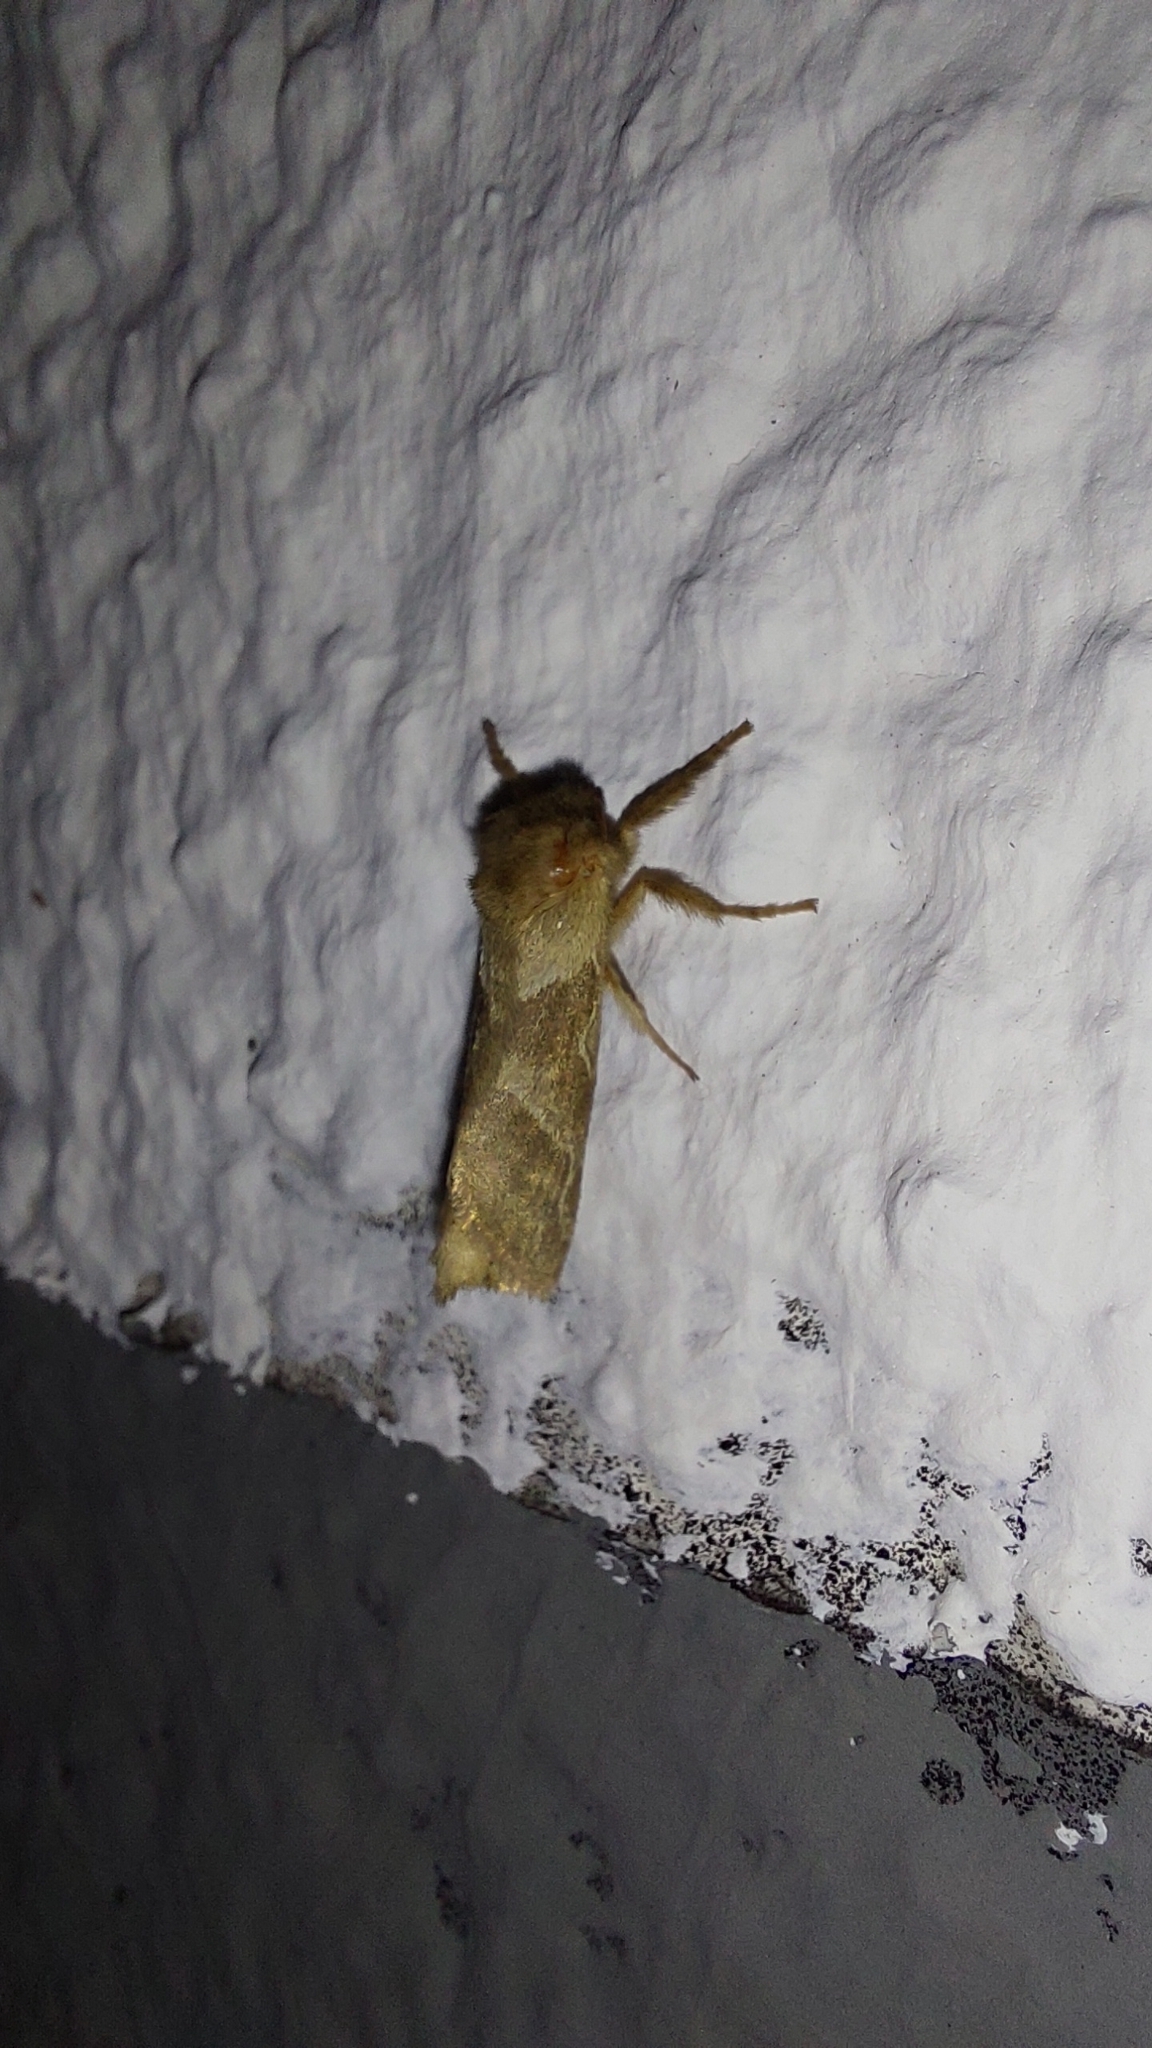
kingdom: Animalia
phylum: Arthropoda
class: Insecta
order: Lepidoptera
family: Hepialidae
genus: Triodia
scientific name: Triodia sylvina
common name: Orange swift
